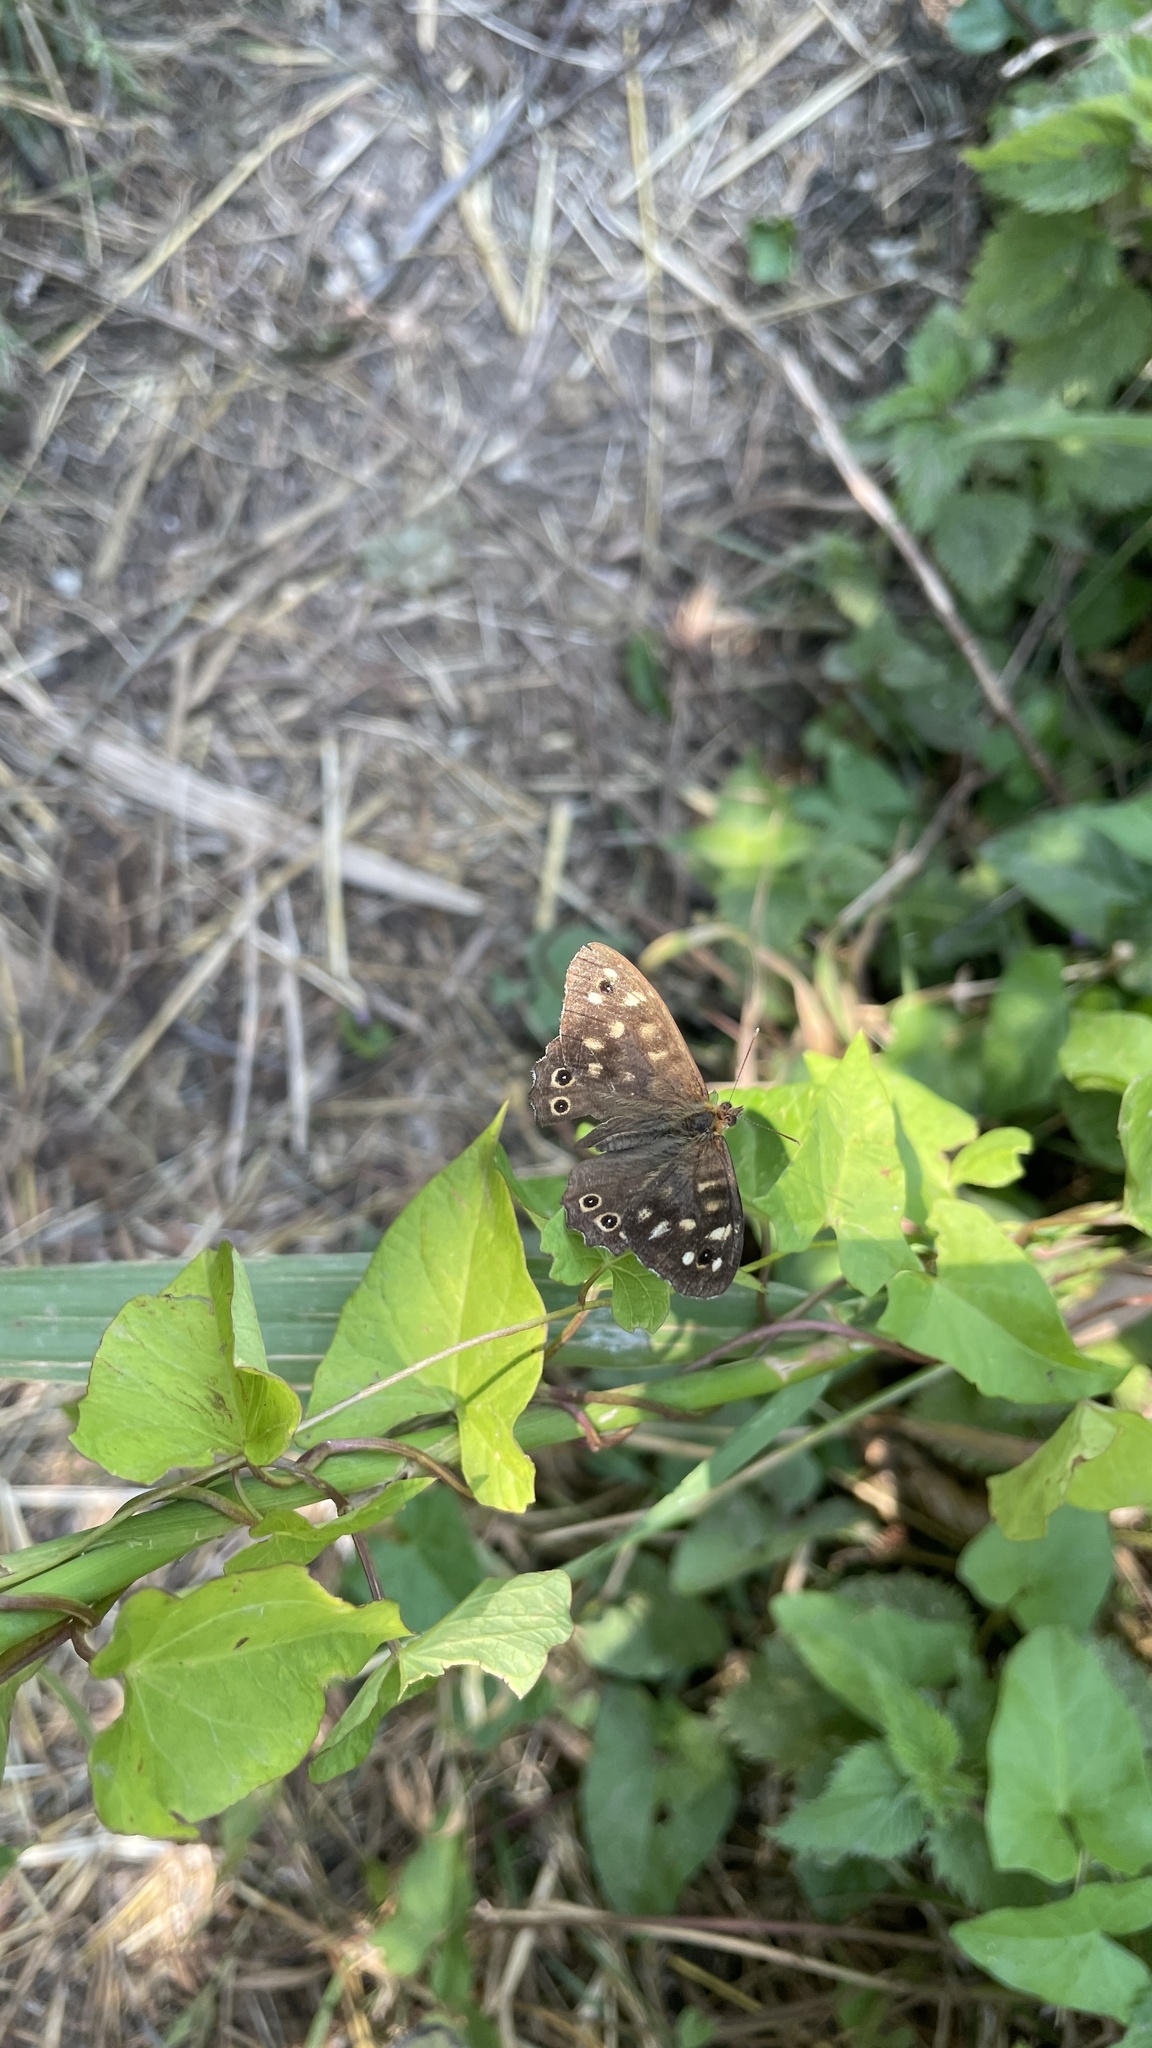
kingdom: Animalia
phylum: Arthropoda
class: Insecta
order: Lepidoptera
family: Nymphalidae
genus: Pararge
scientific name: Pararge aegeria
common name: Speckled wood
